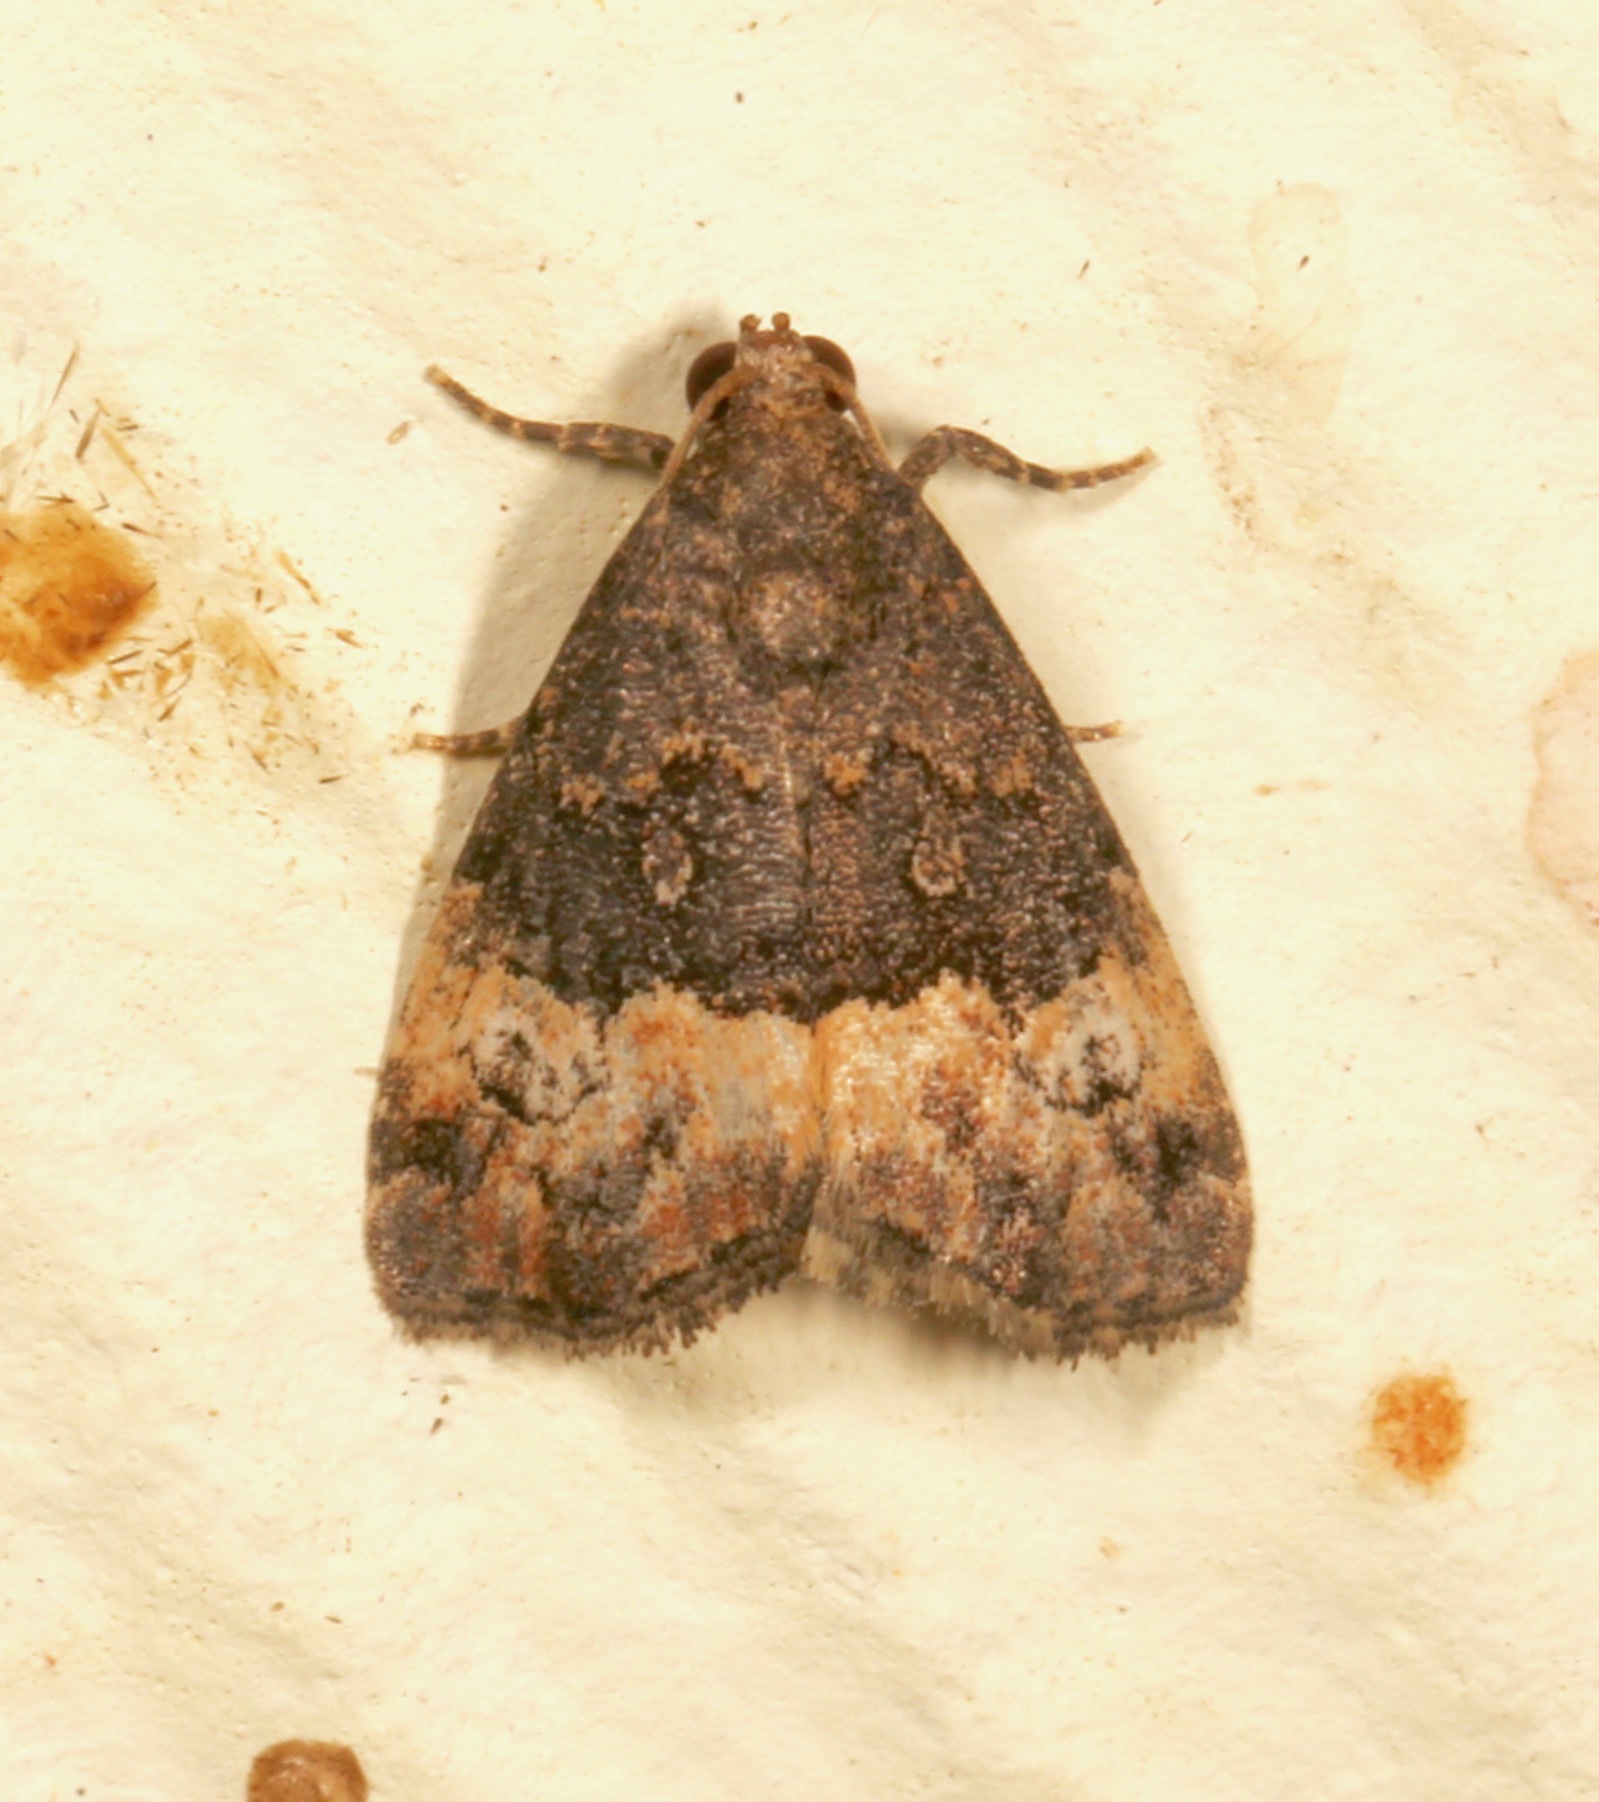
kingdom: Animalia
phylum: Arthropoda
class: Insecta
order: Lepidoptera
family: Noctuidae
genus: Ozarba
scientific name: Ozarba propera
